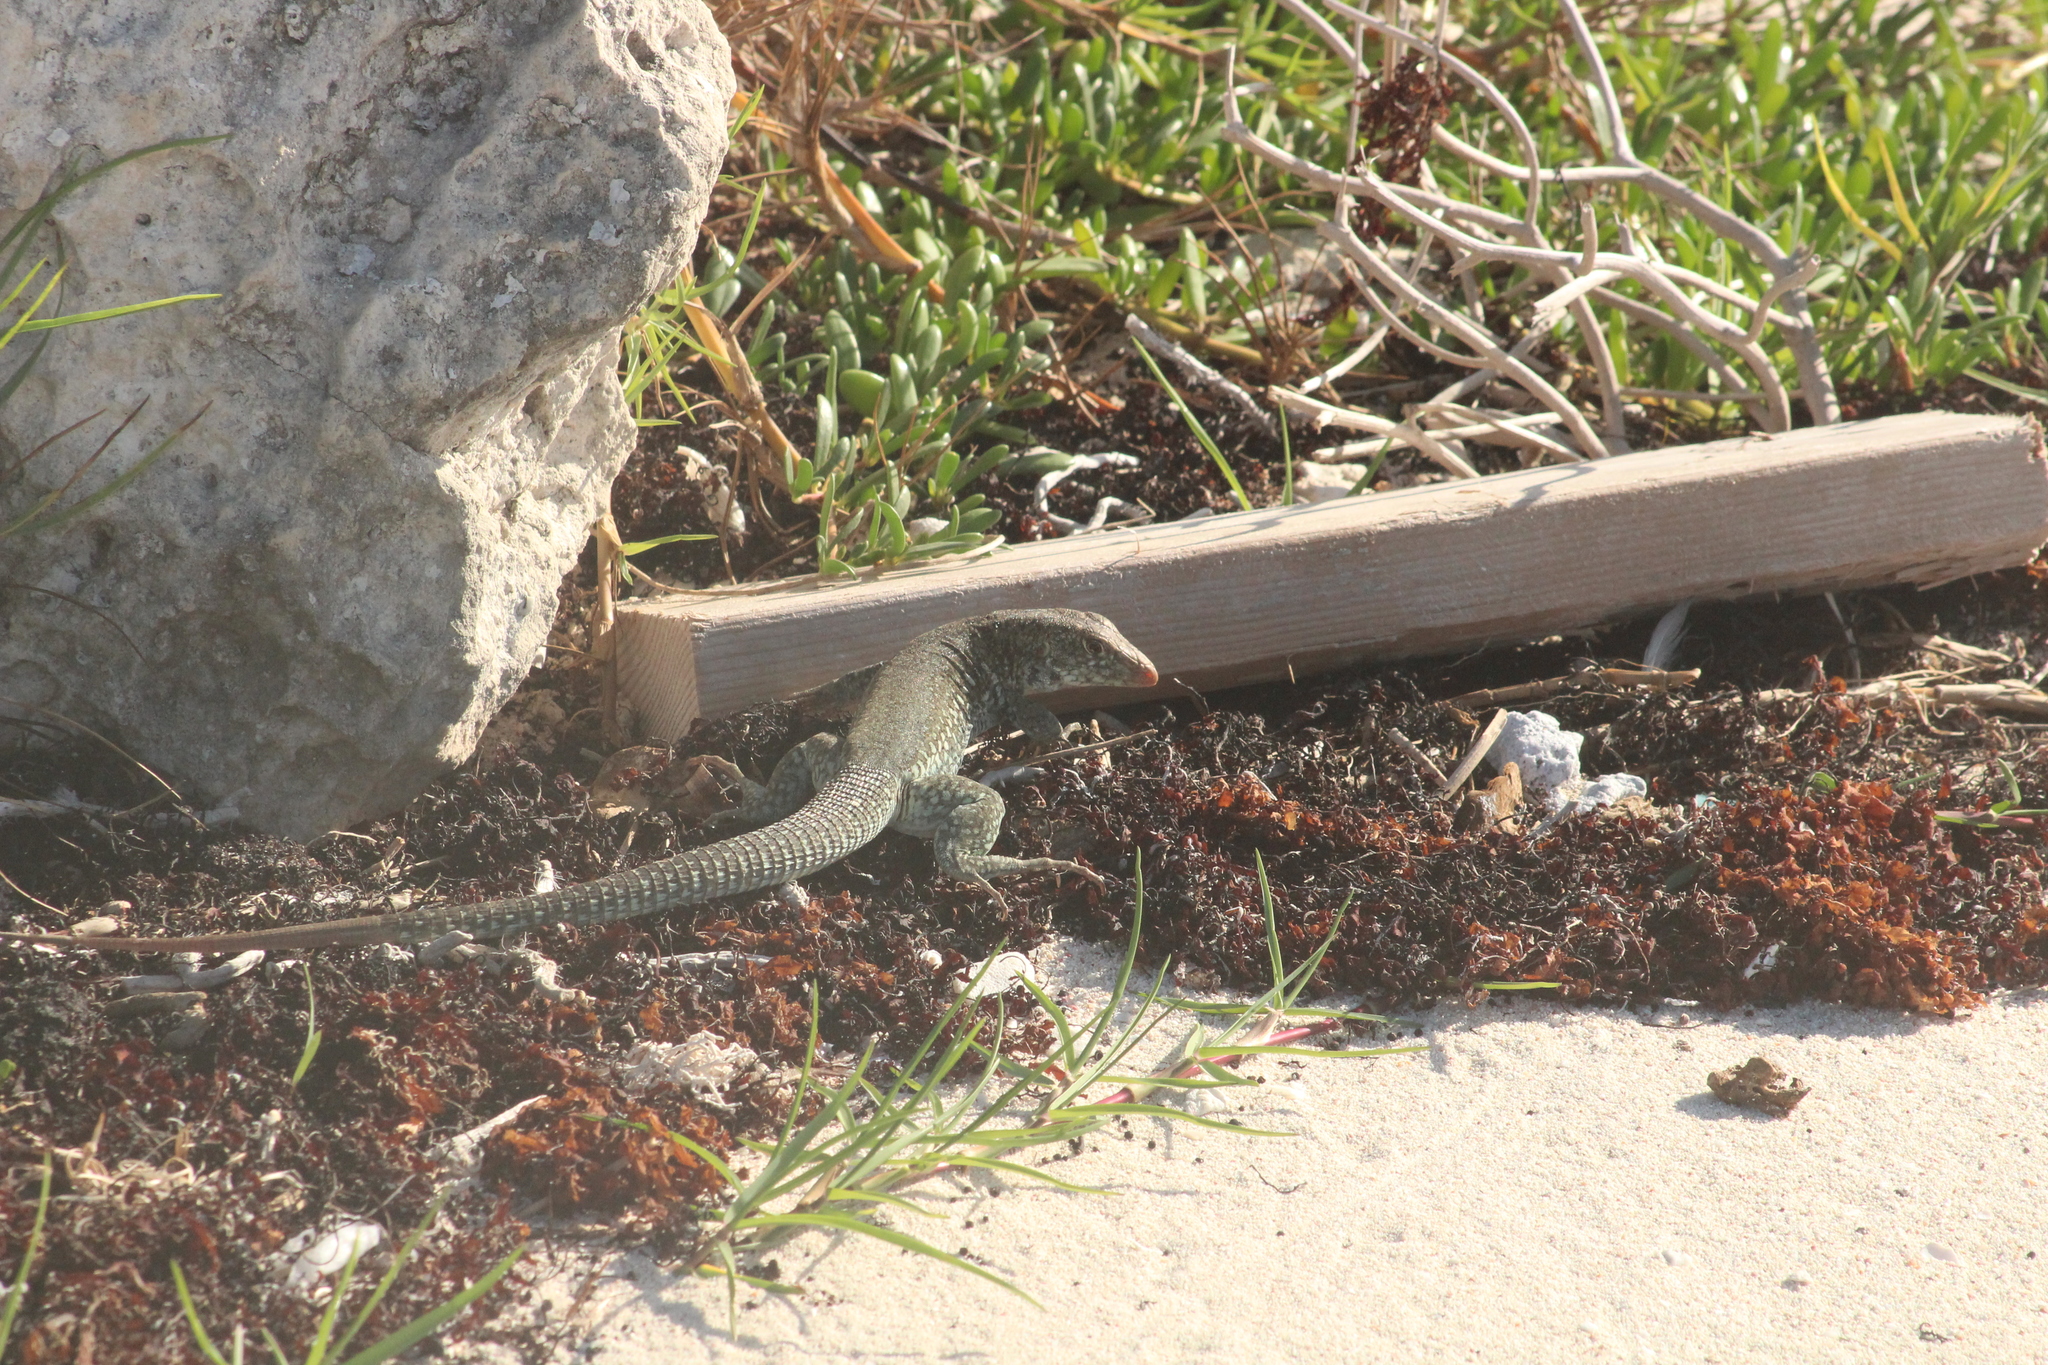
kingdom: Animalia
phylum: Chordata
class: Squamata
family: Teiidae
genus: Pholidoscelis
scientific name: Pholidoscelis plei
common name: Anguilla bank ameiva
